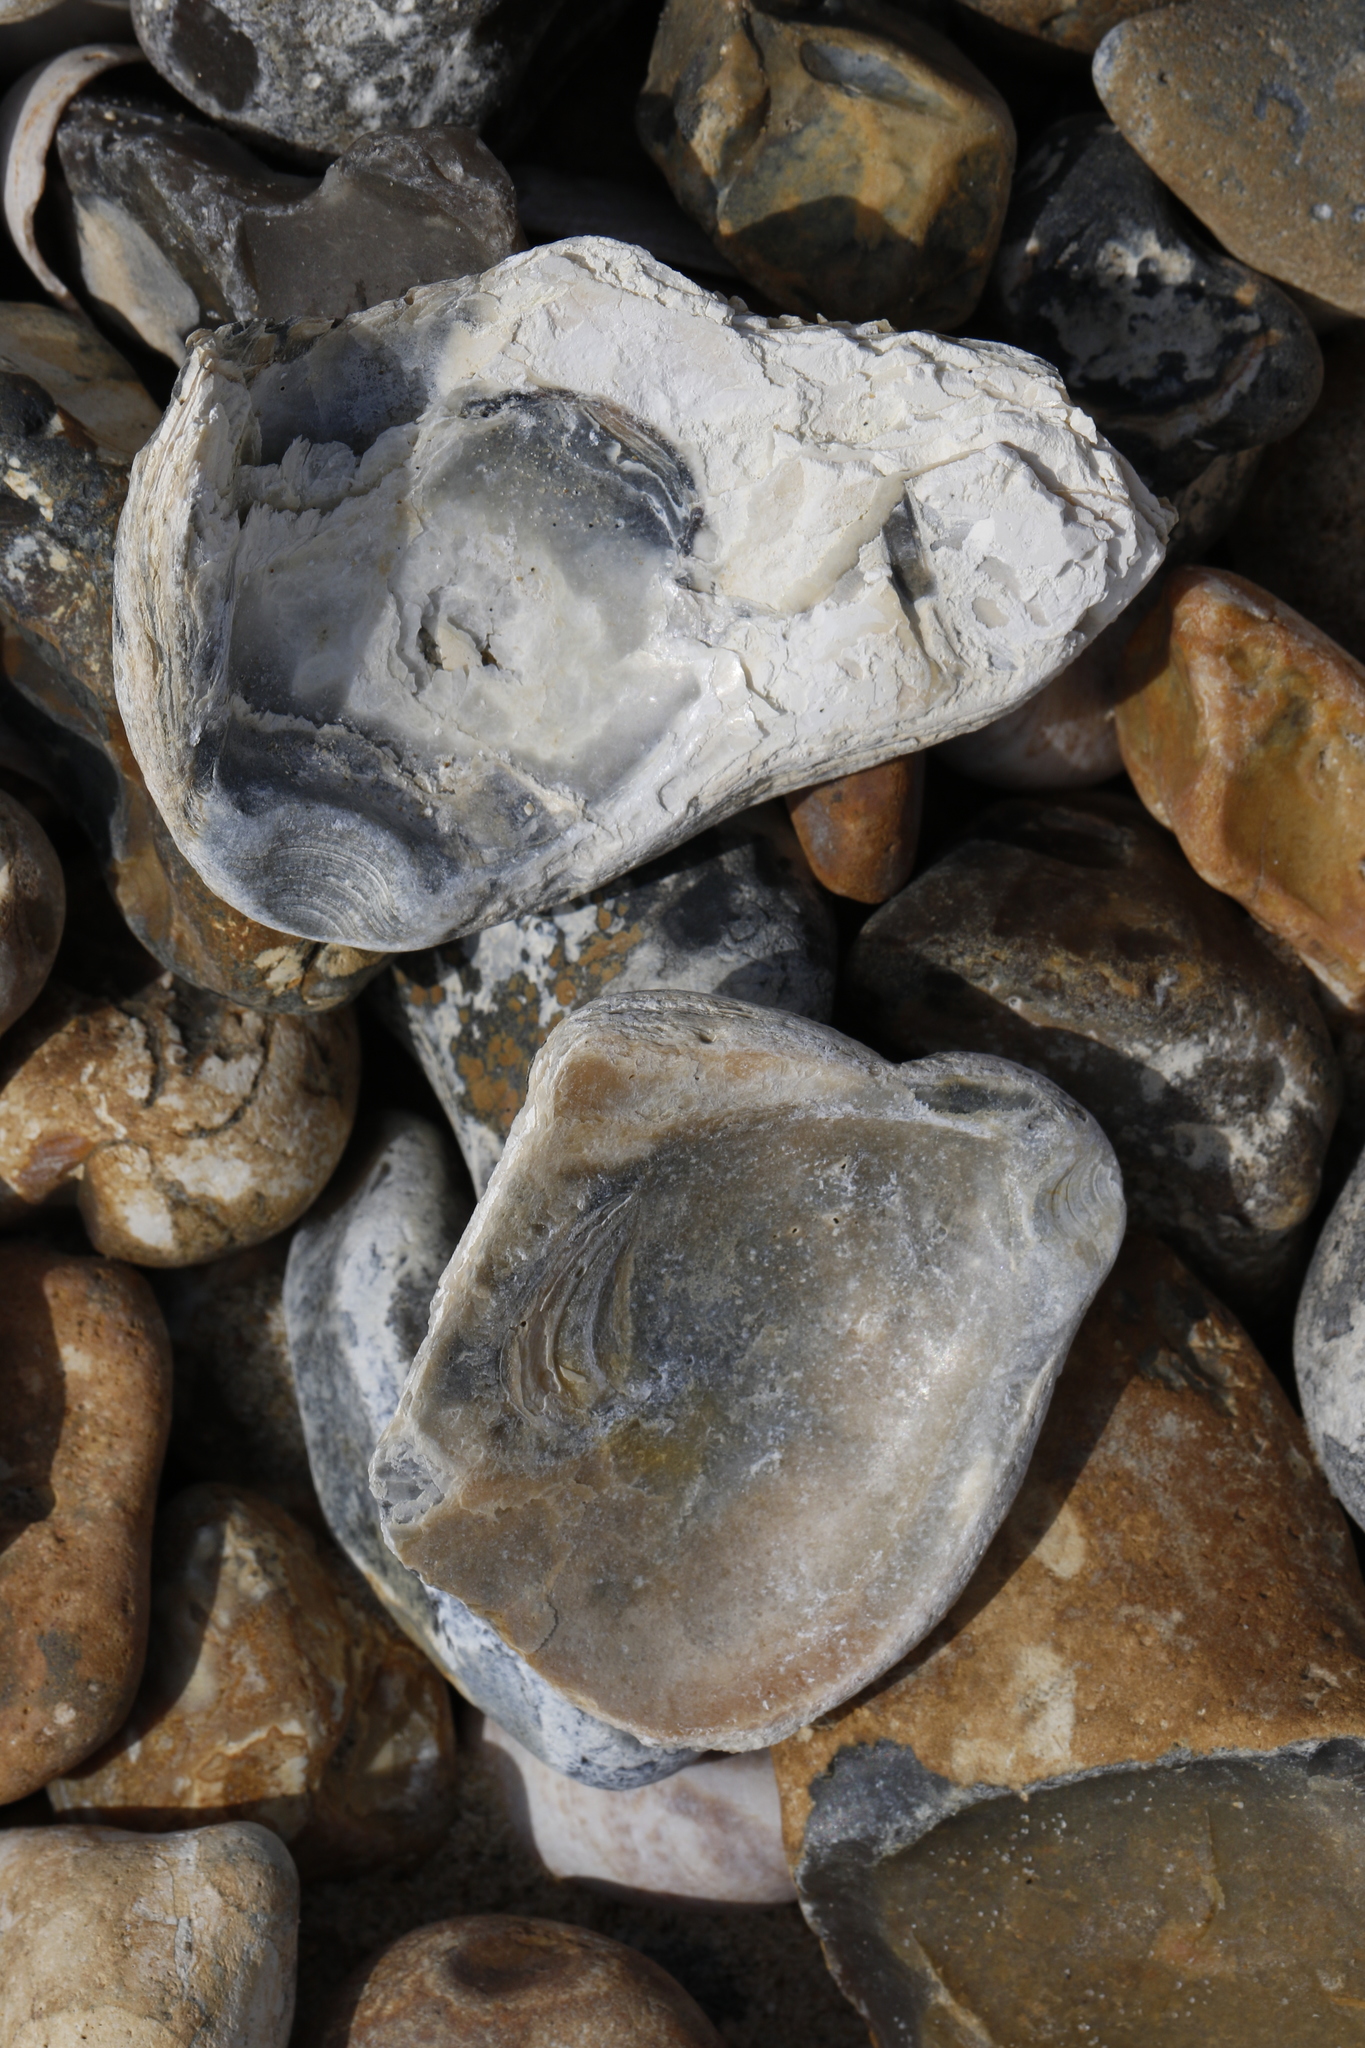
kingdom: Animalia
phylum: Mollusca
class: Bivalvia
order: Ostreida
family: Ostreidae
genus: Ostrea
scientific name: Ostrea edulis
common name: Flat oyster
